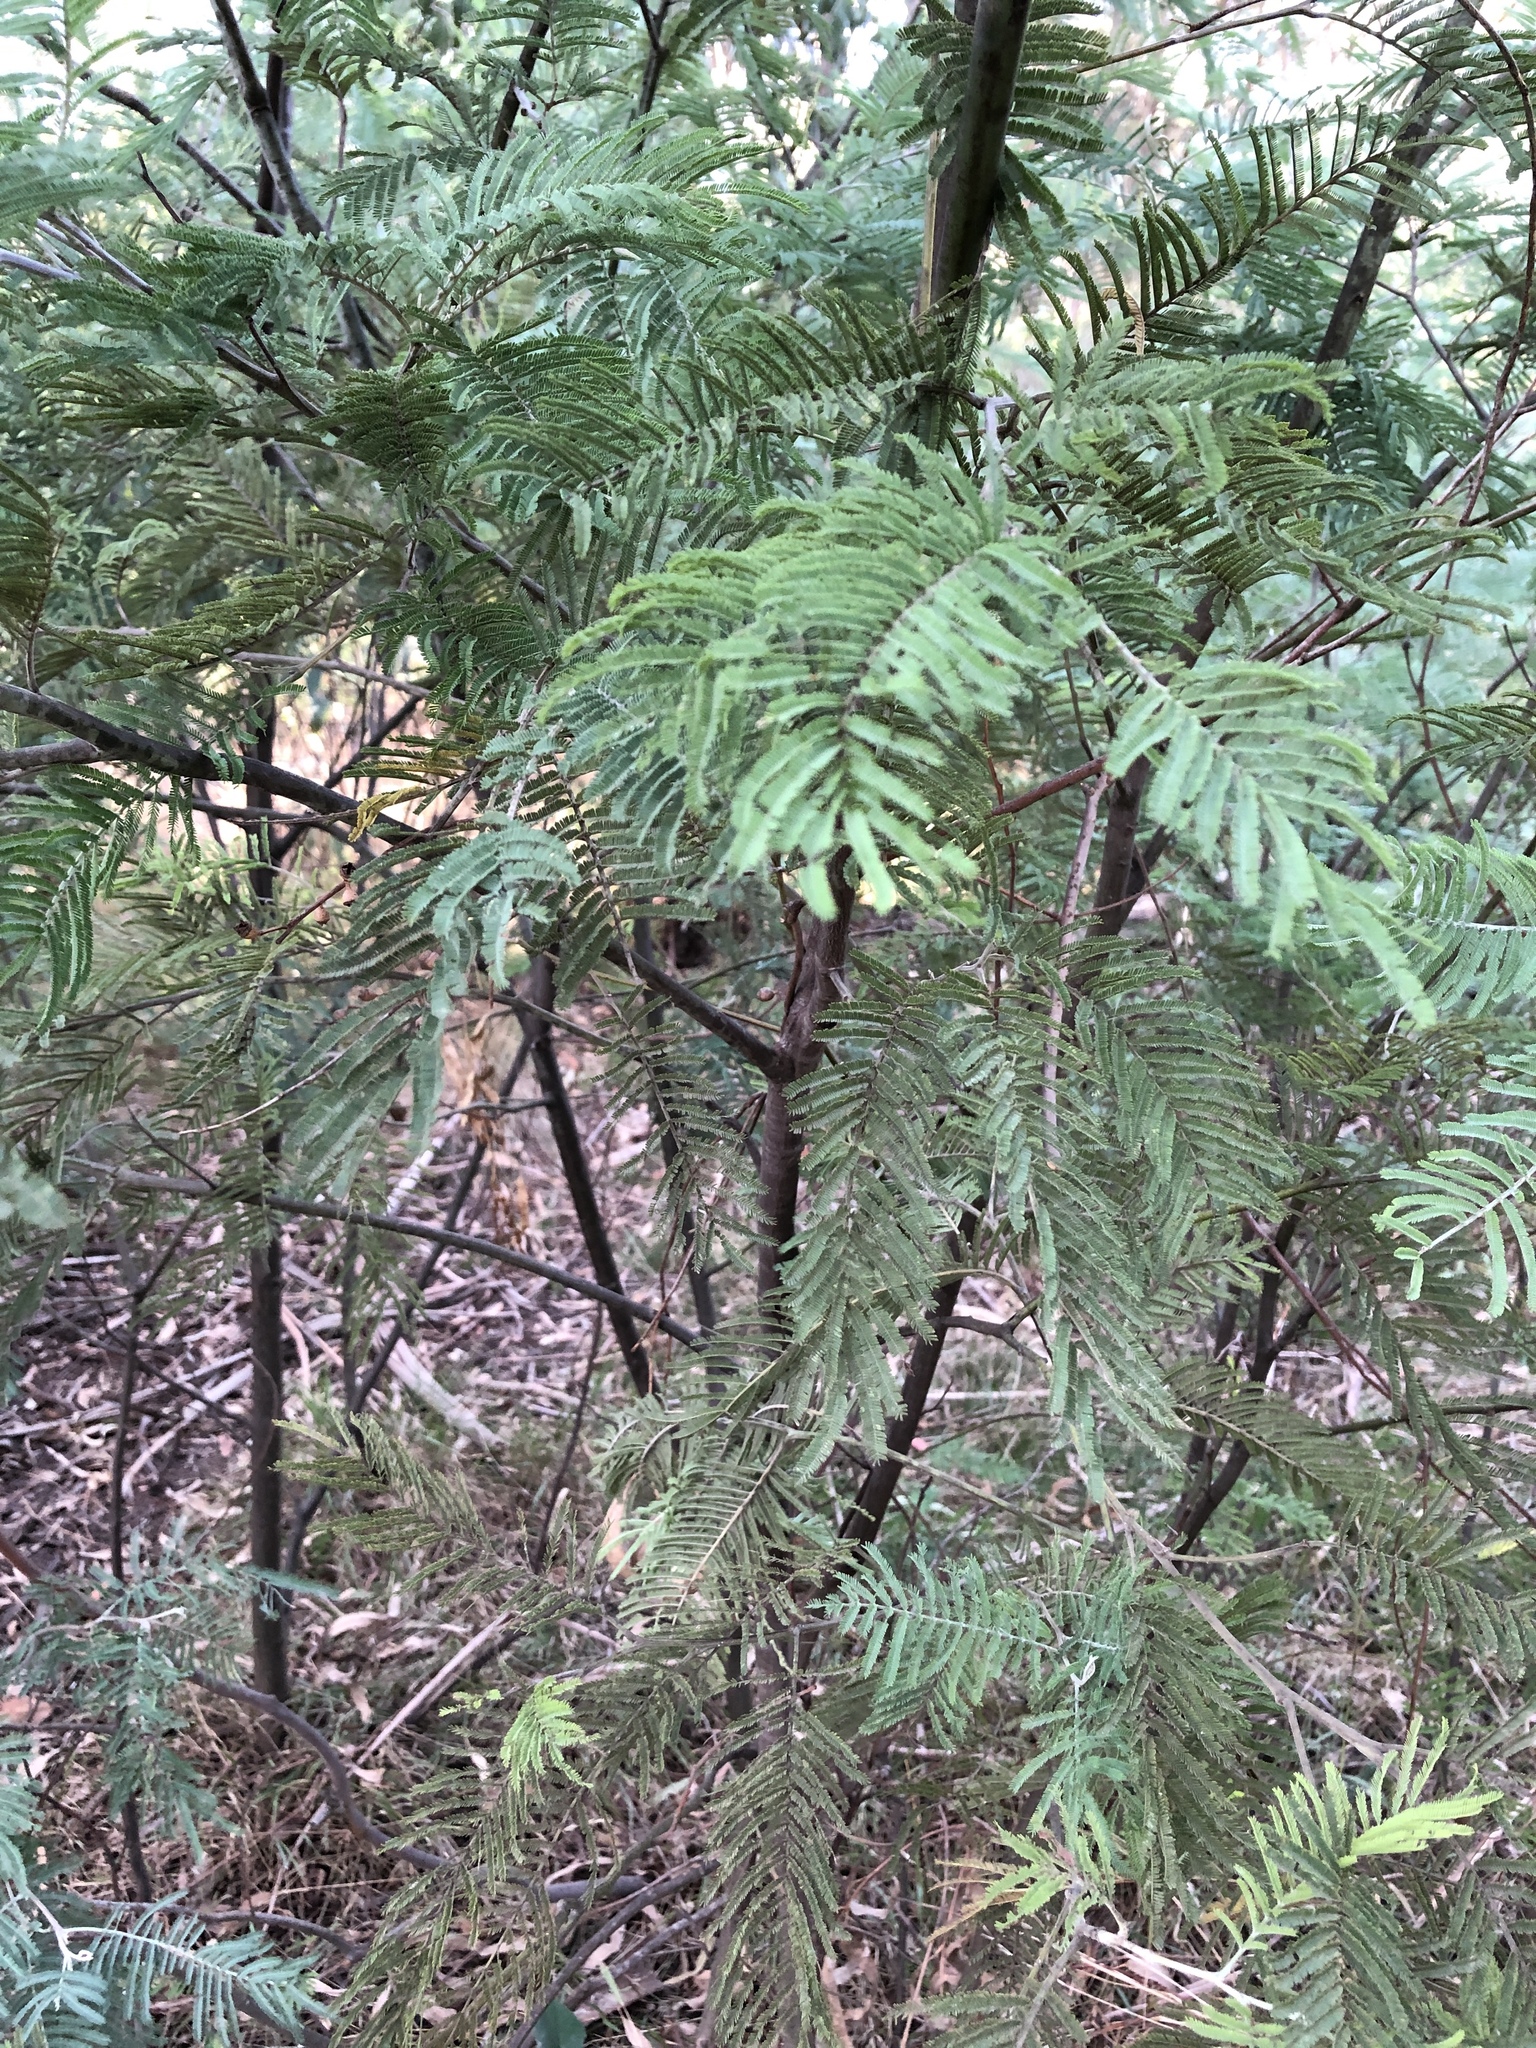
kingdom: Plantae
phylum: Tracheophyta
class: Magnoliopsida
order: Fabales
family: Fabaceae
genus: Acacia
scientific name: Acacia dealbata
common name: Silver wattle
